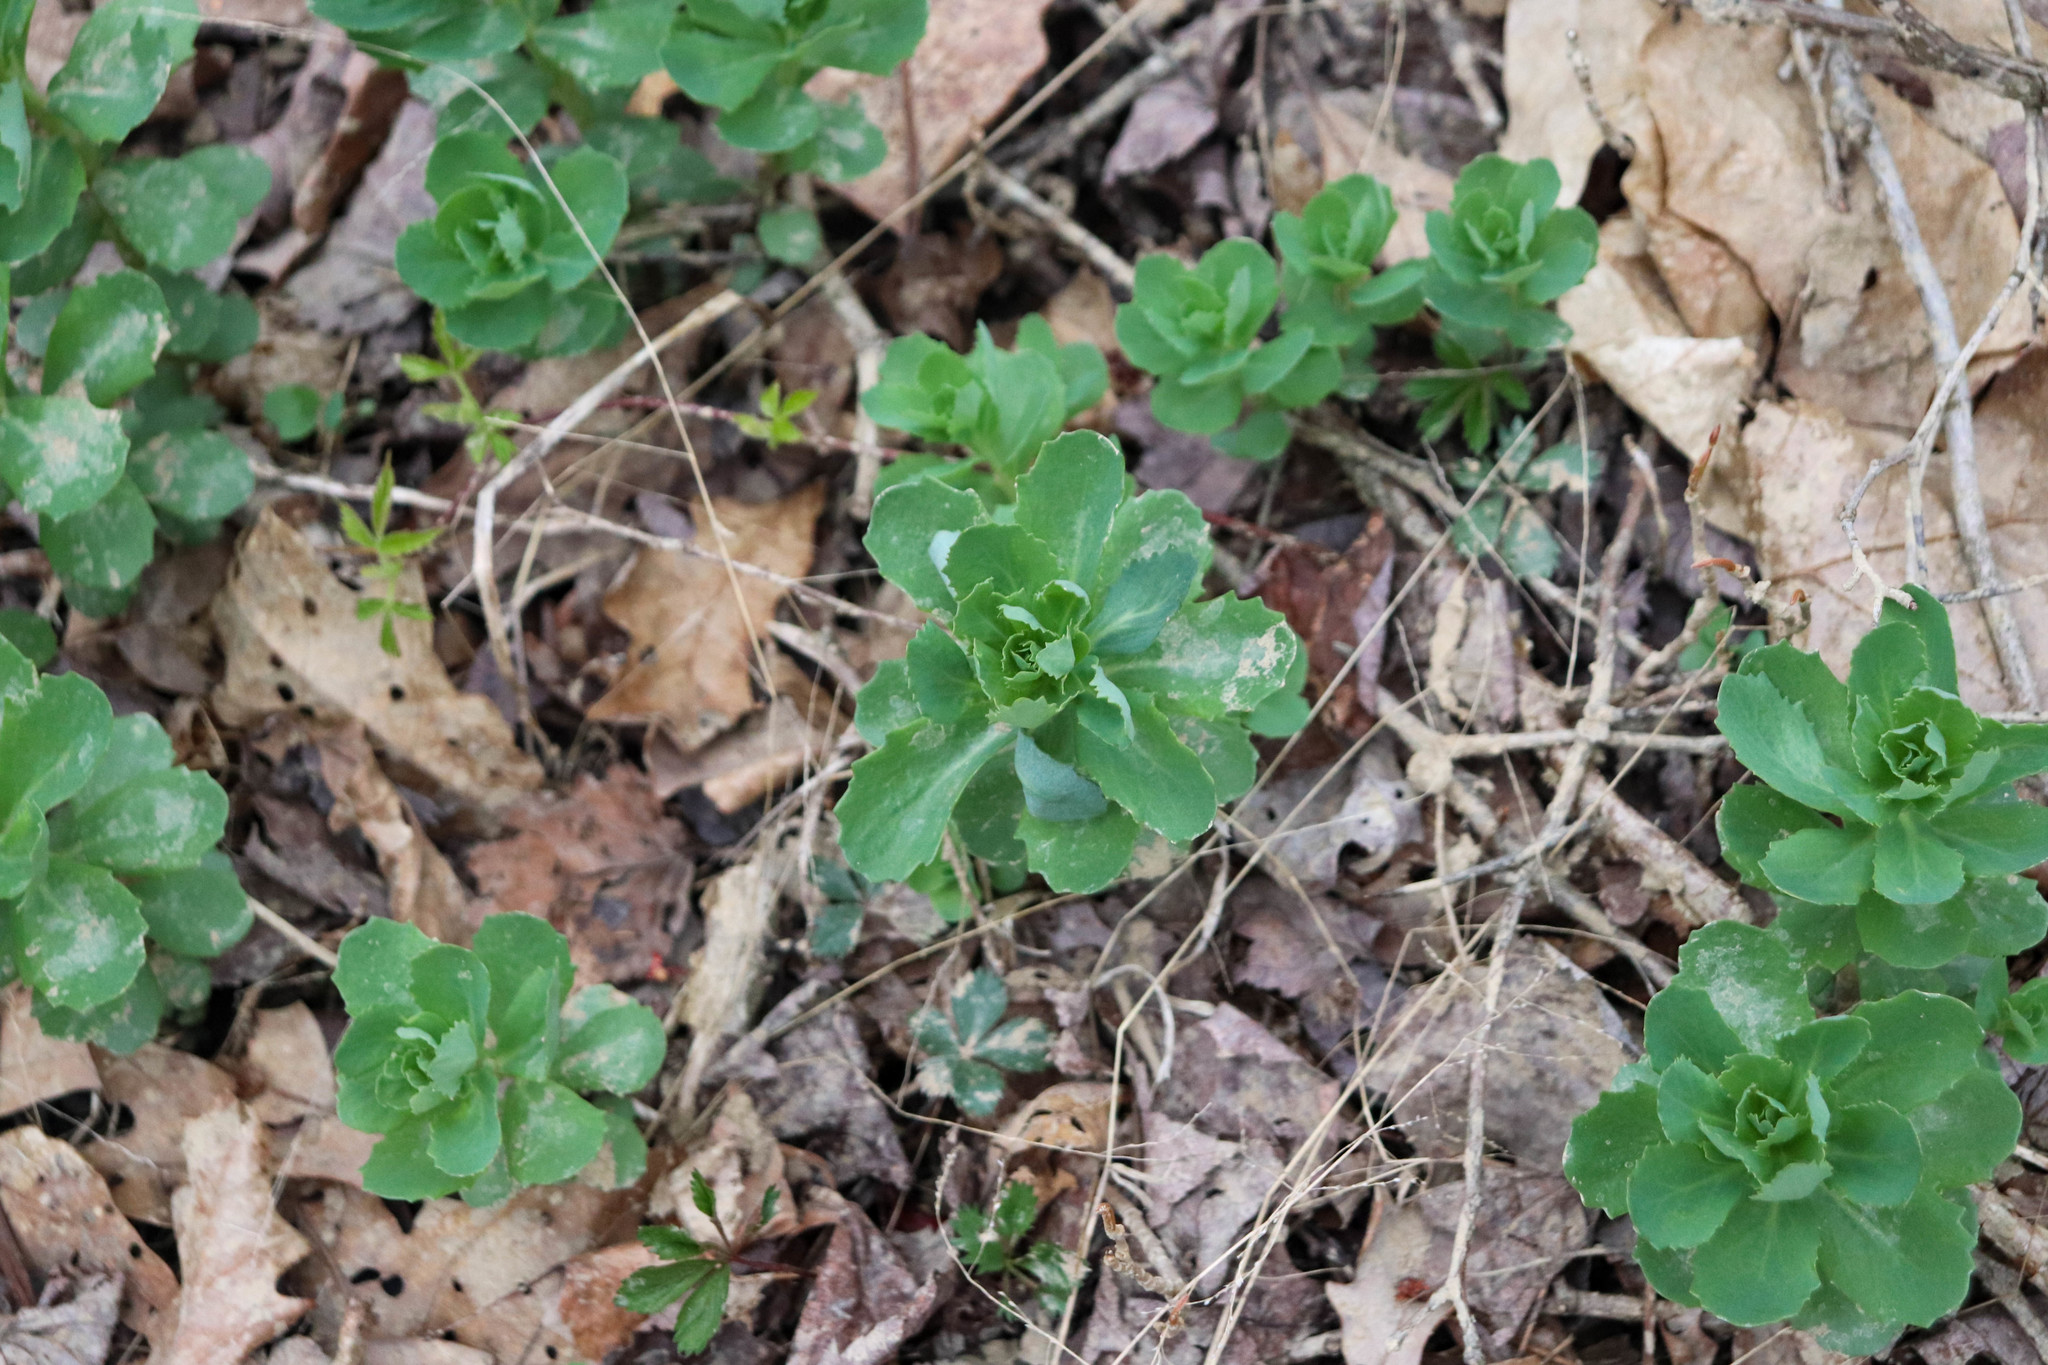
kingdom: Plantae
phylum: Tracheophyta
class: Magnoliopsida
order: Saxifragales
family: Crassulaceae
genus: Hylotelephium
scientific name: Hylotelephium telephium
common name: Live-forever
